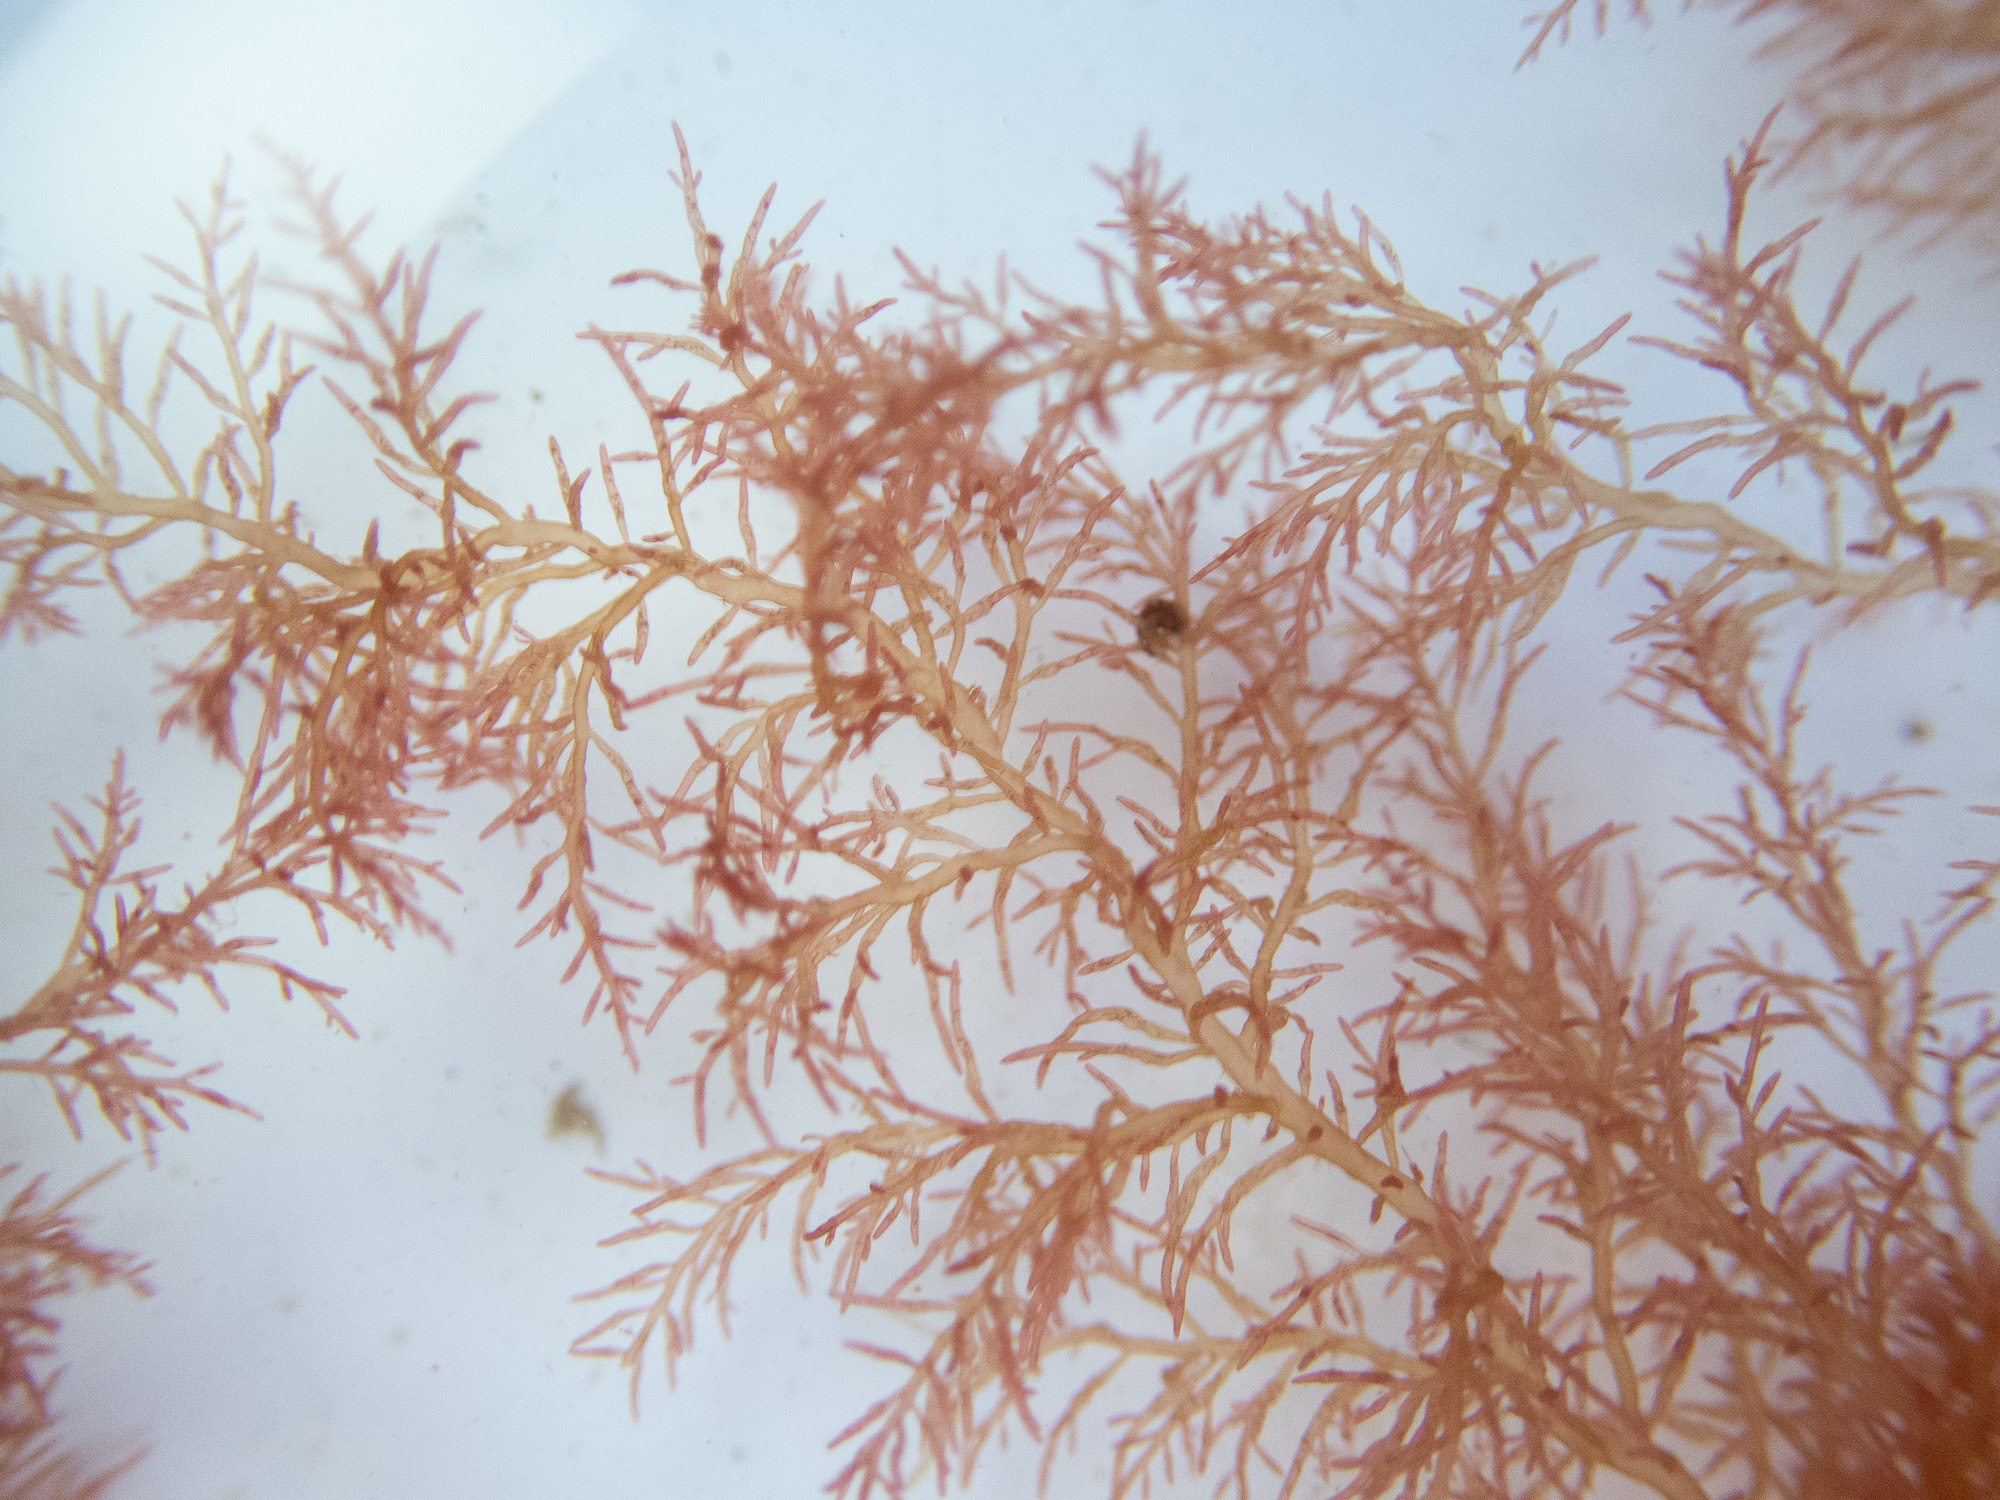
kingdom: Plantae
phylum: Rhodophyta
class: Florideophyceae
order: Rhodymeniales
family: Lomentariaceae
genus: Lomentaria
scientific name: Lomentaria clavellosa
